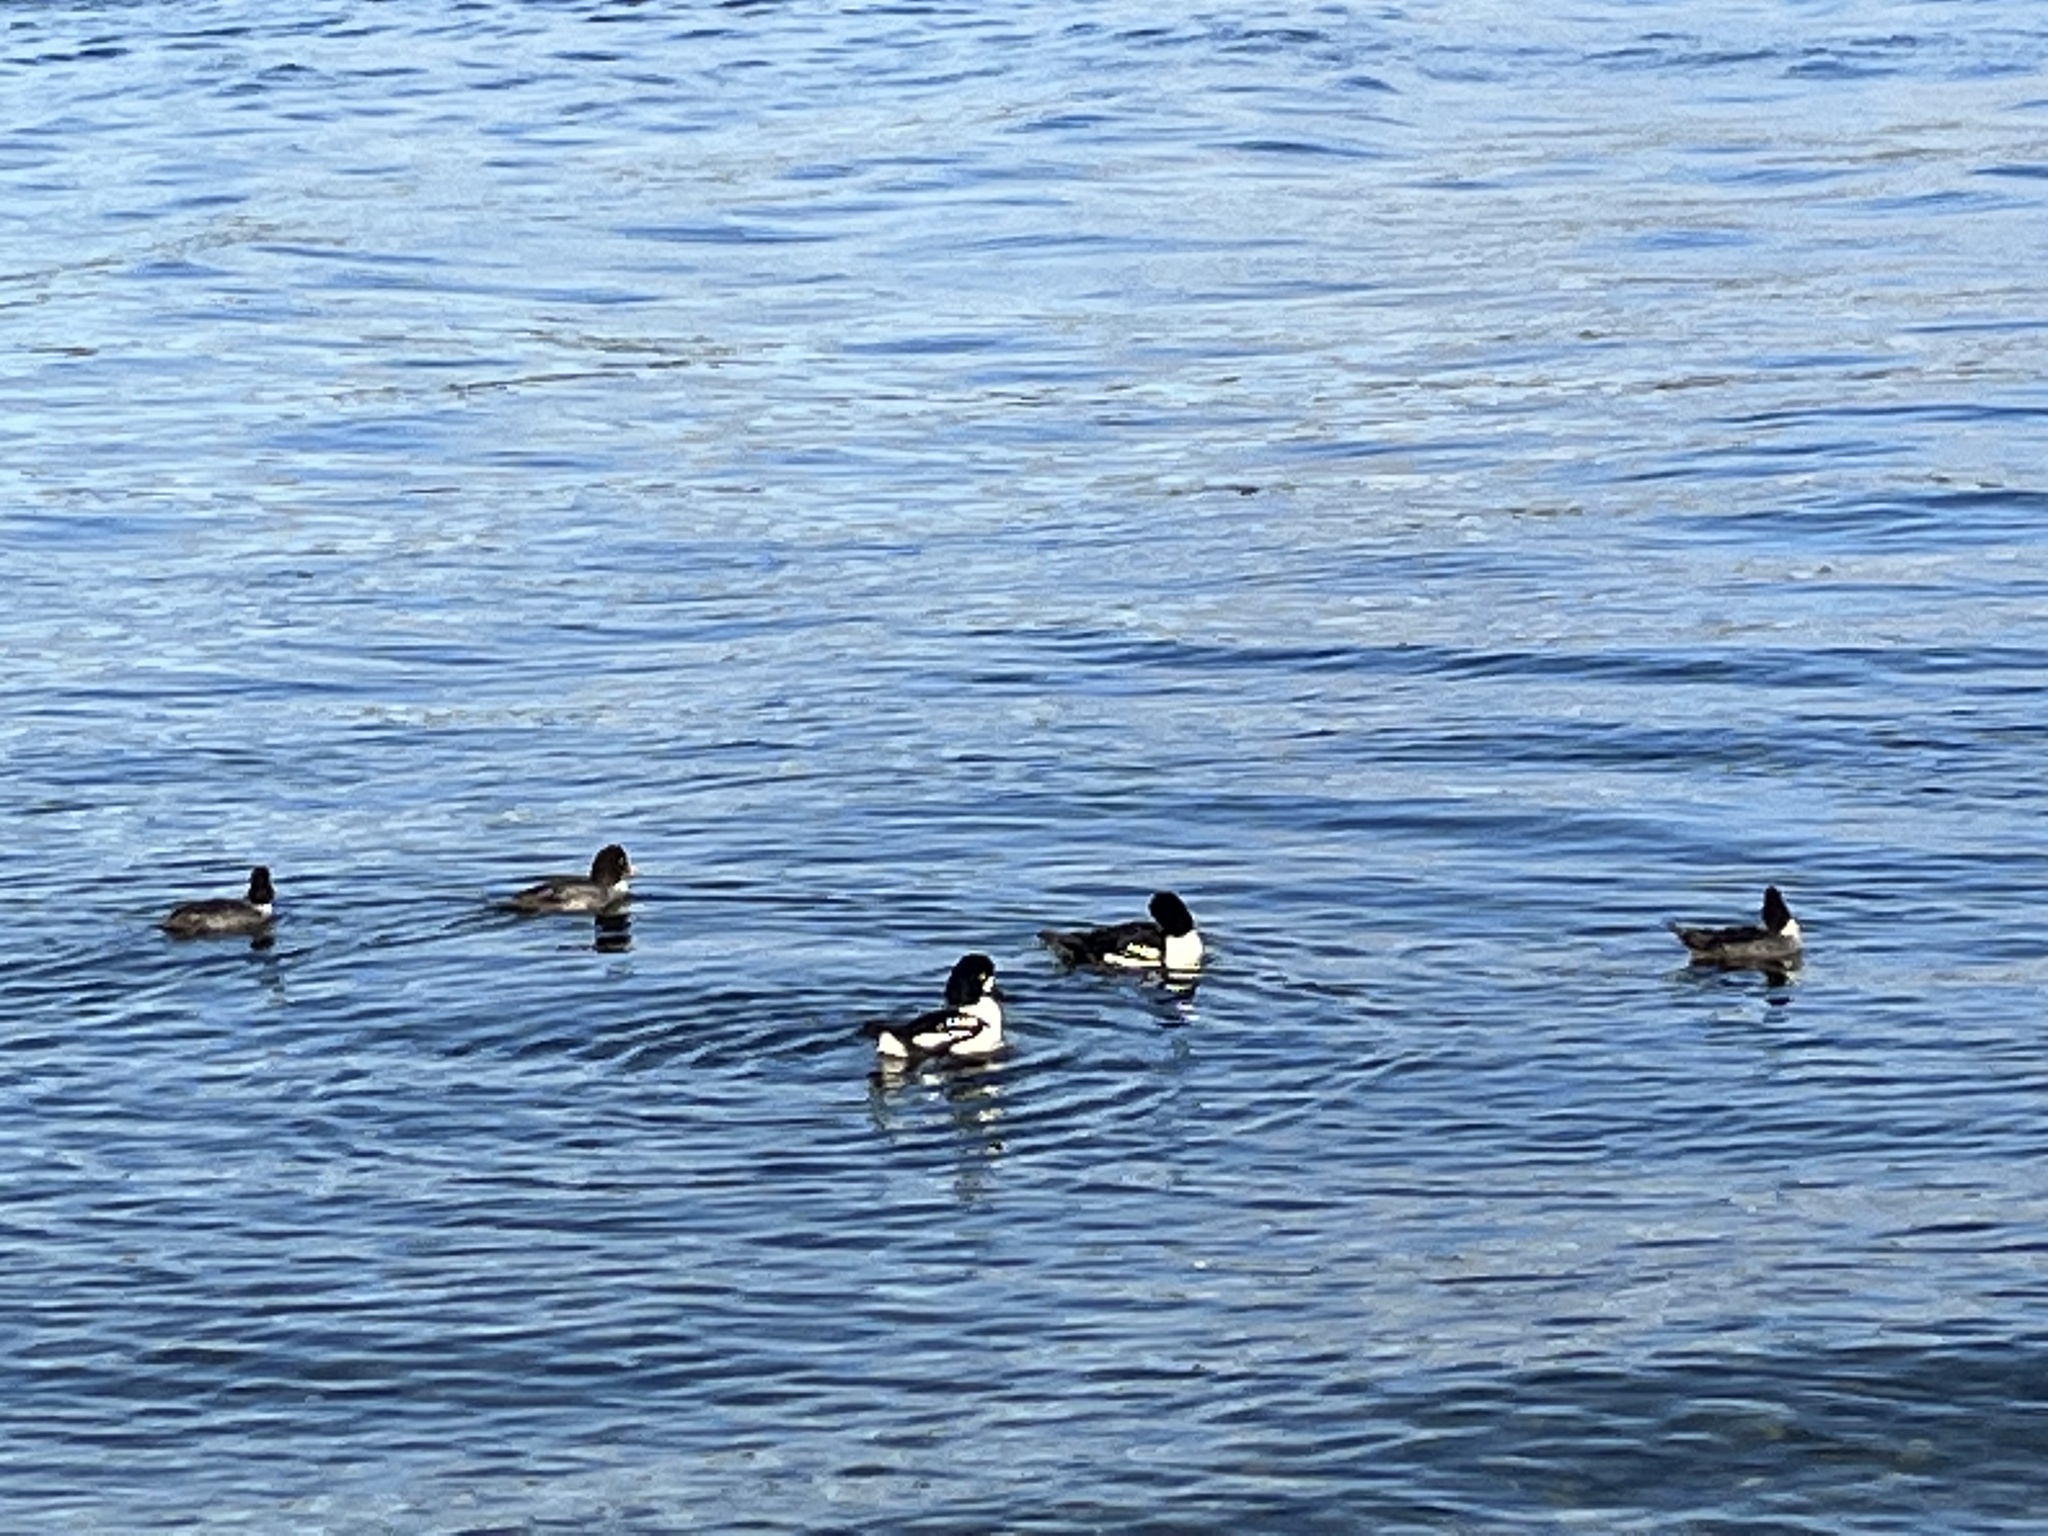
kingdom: Animalia
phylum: Chordata
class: Aves
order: Anseriformes
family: Anatidae
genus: Bucephala
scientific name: Bucephala islandica
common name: Barrow's goldeneye
